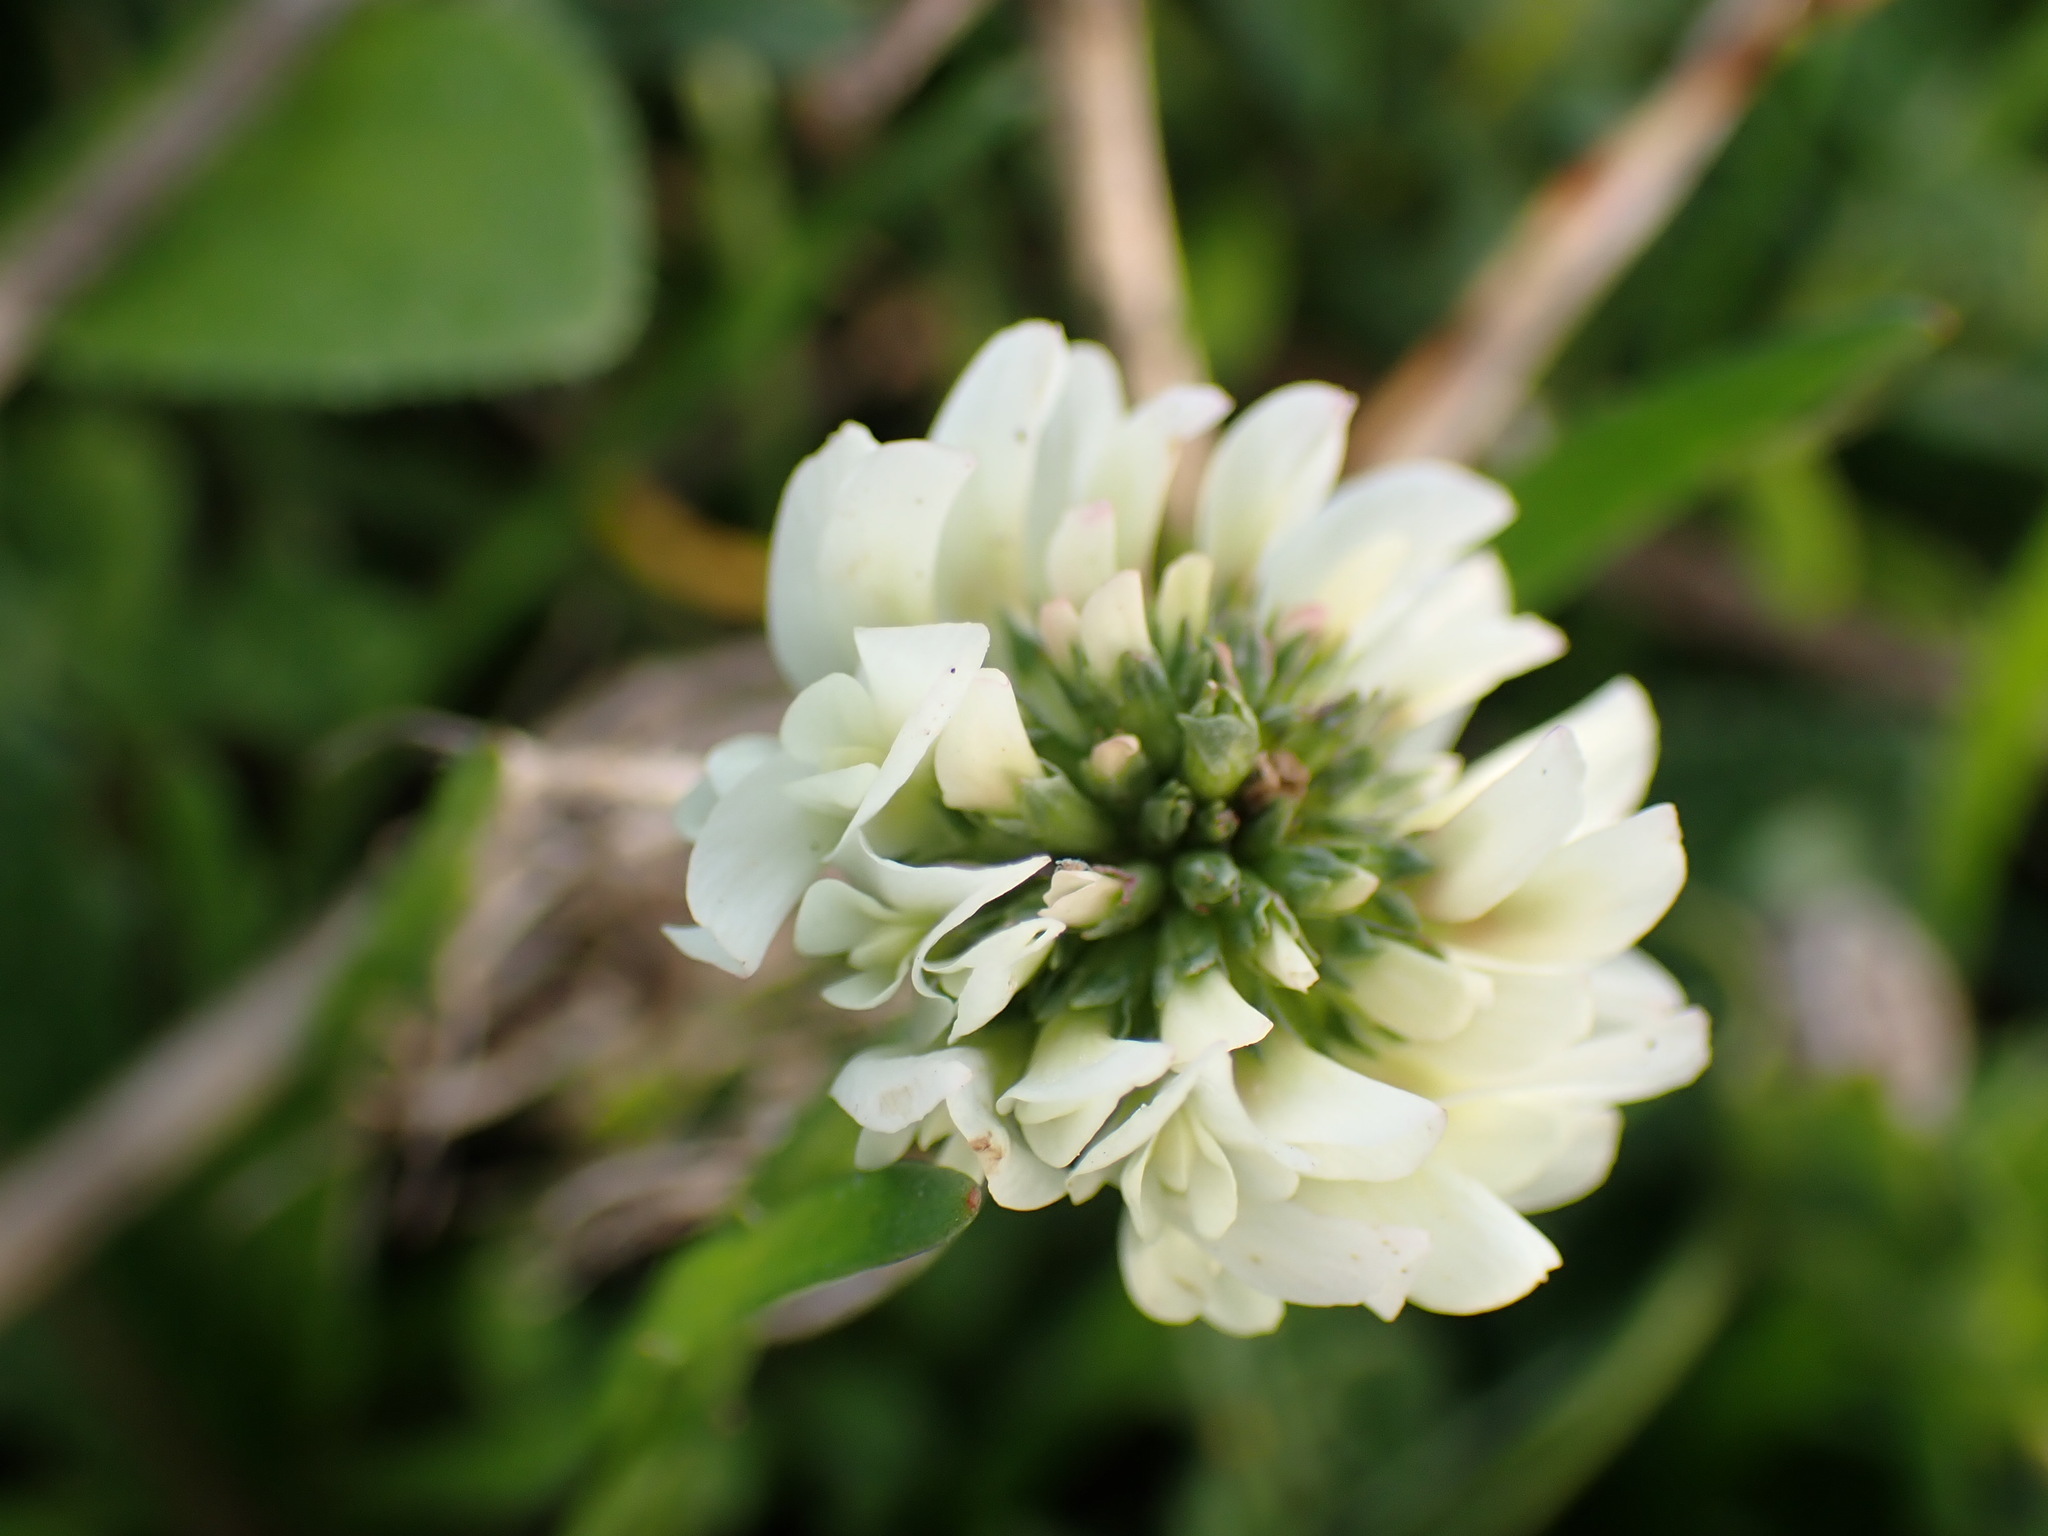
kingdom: Plantae
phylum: Tracheophyta
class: Magnoliopsida
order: Fabales
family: Fabaceae
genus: Trifolium
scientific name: Trifolium repens
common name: White clover
